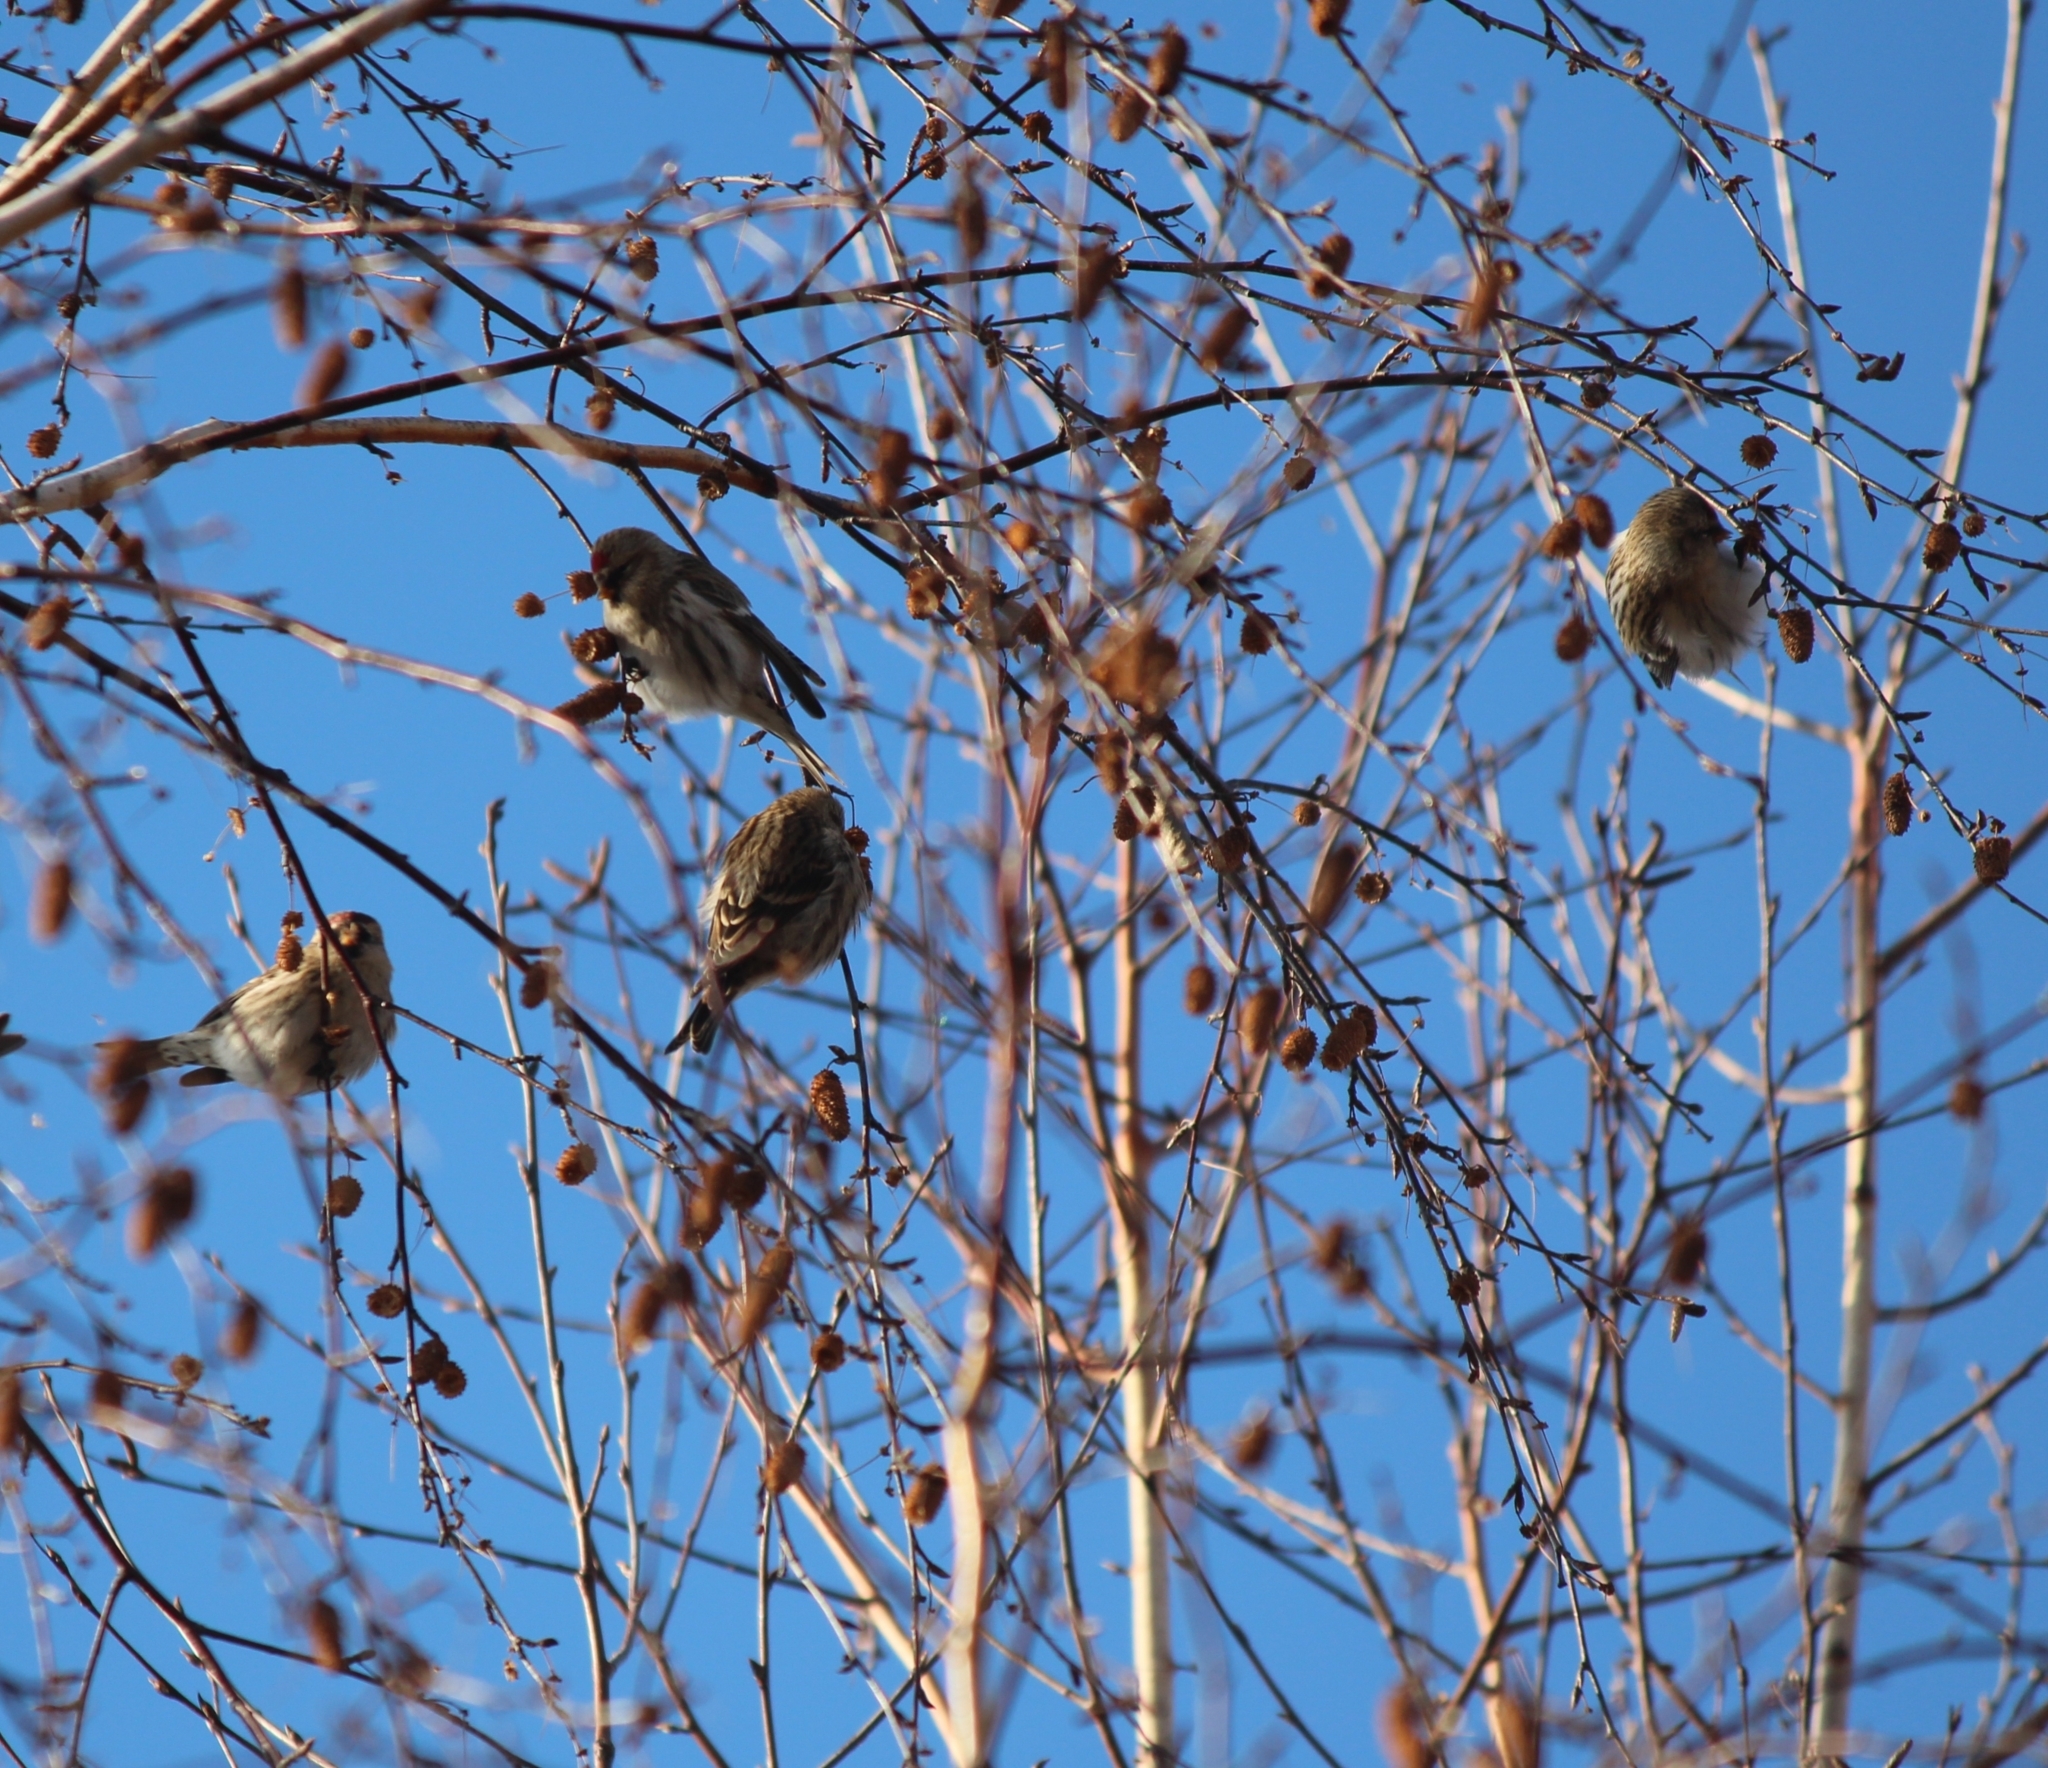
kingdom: Animalia
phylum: Chordata
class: Aves
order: Passeriformes
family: Fringillidae
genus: Acanthis
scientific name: Acanthis flammea
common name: Common redpoll
